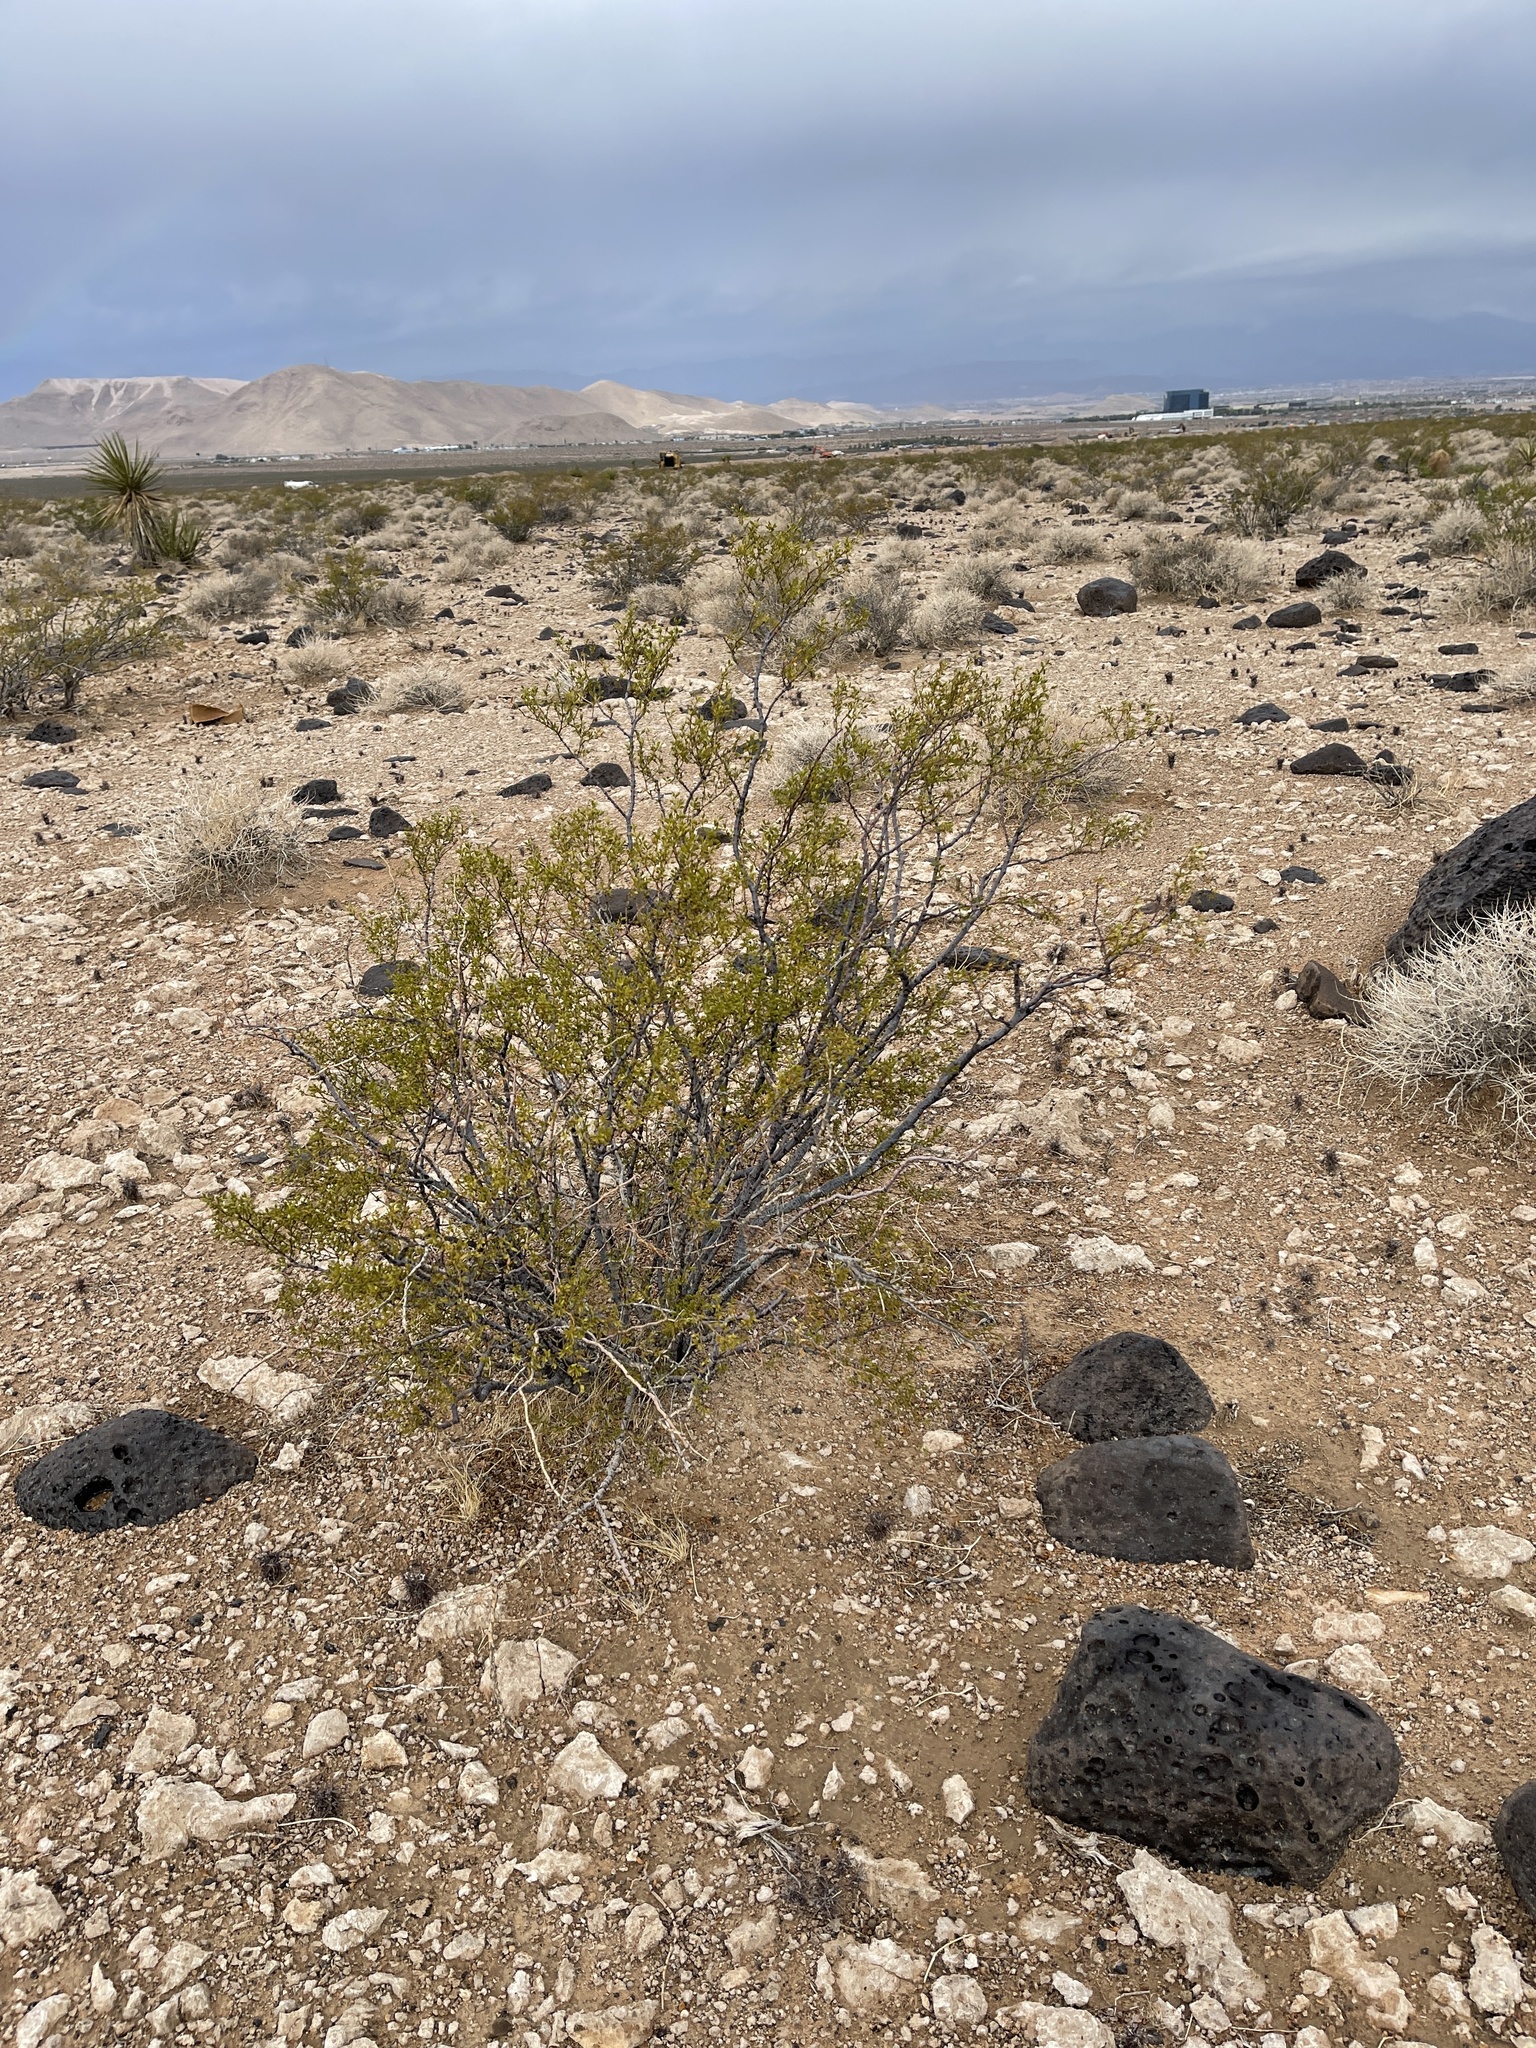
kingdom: Plantae
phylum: Tracheophyta
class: Magnoliopsida
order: Zygophyllales
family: Zygophyllaceae
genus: Larrea
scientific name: Larrea tridentata
